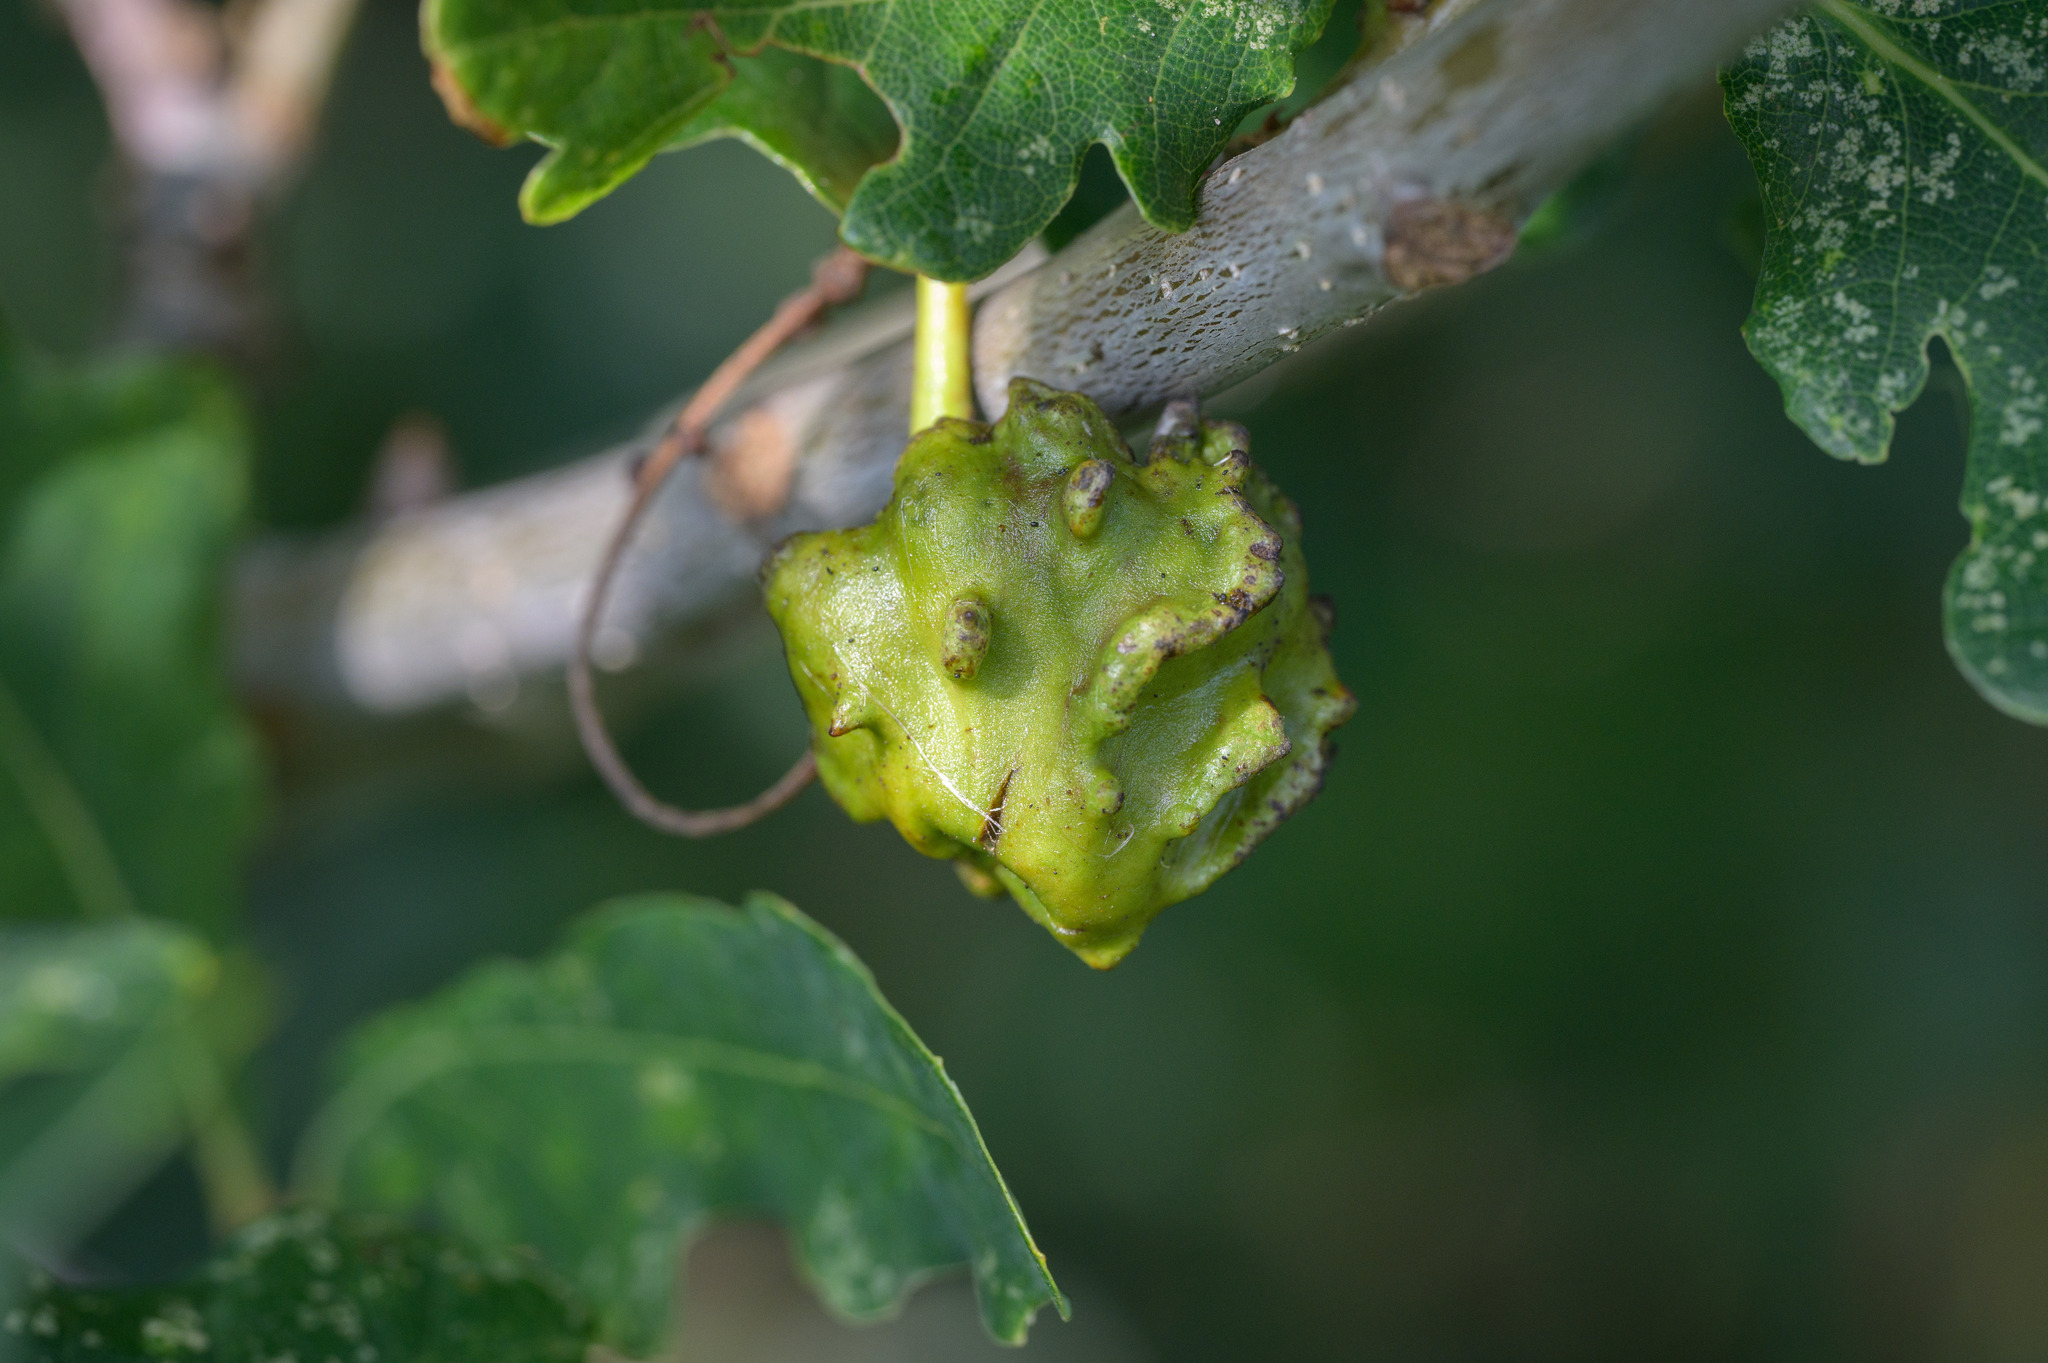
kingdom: Animalia
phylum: Arthropoda
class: Insecta
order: Hymenoptera
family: Cynipidae
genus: Andricus
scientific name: Andricus quercuscalicis
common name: Knopper gall
